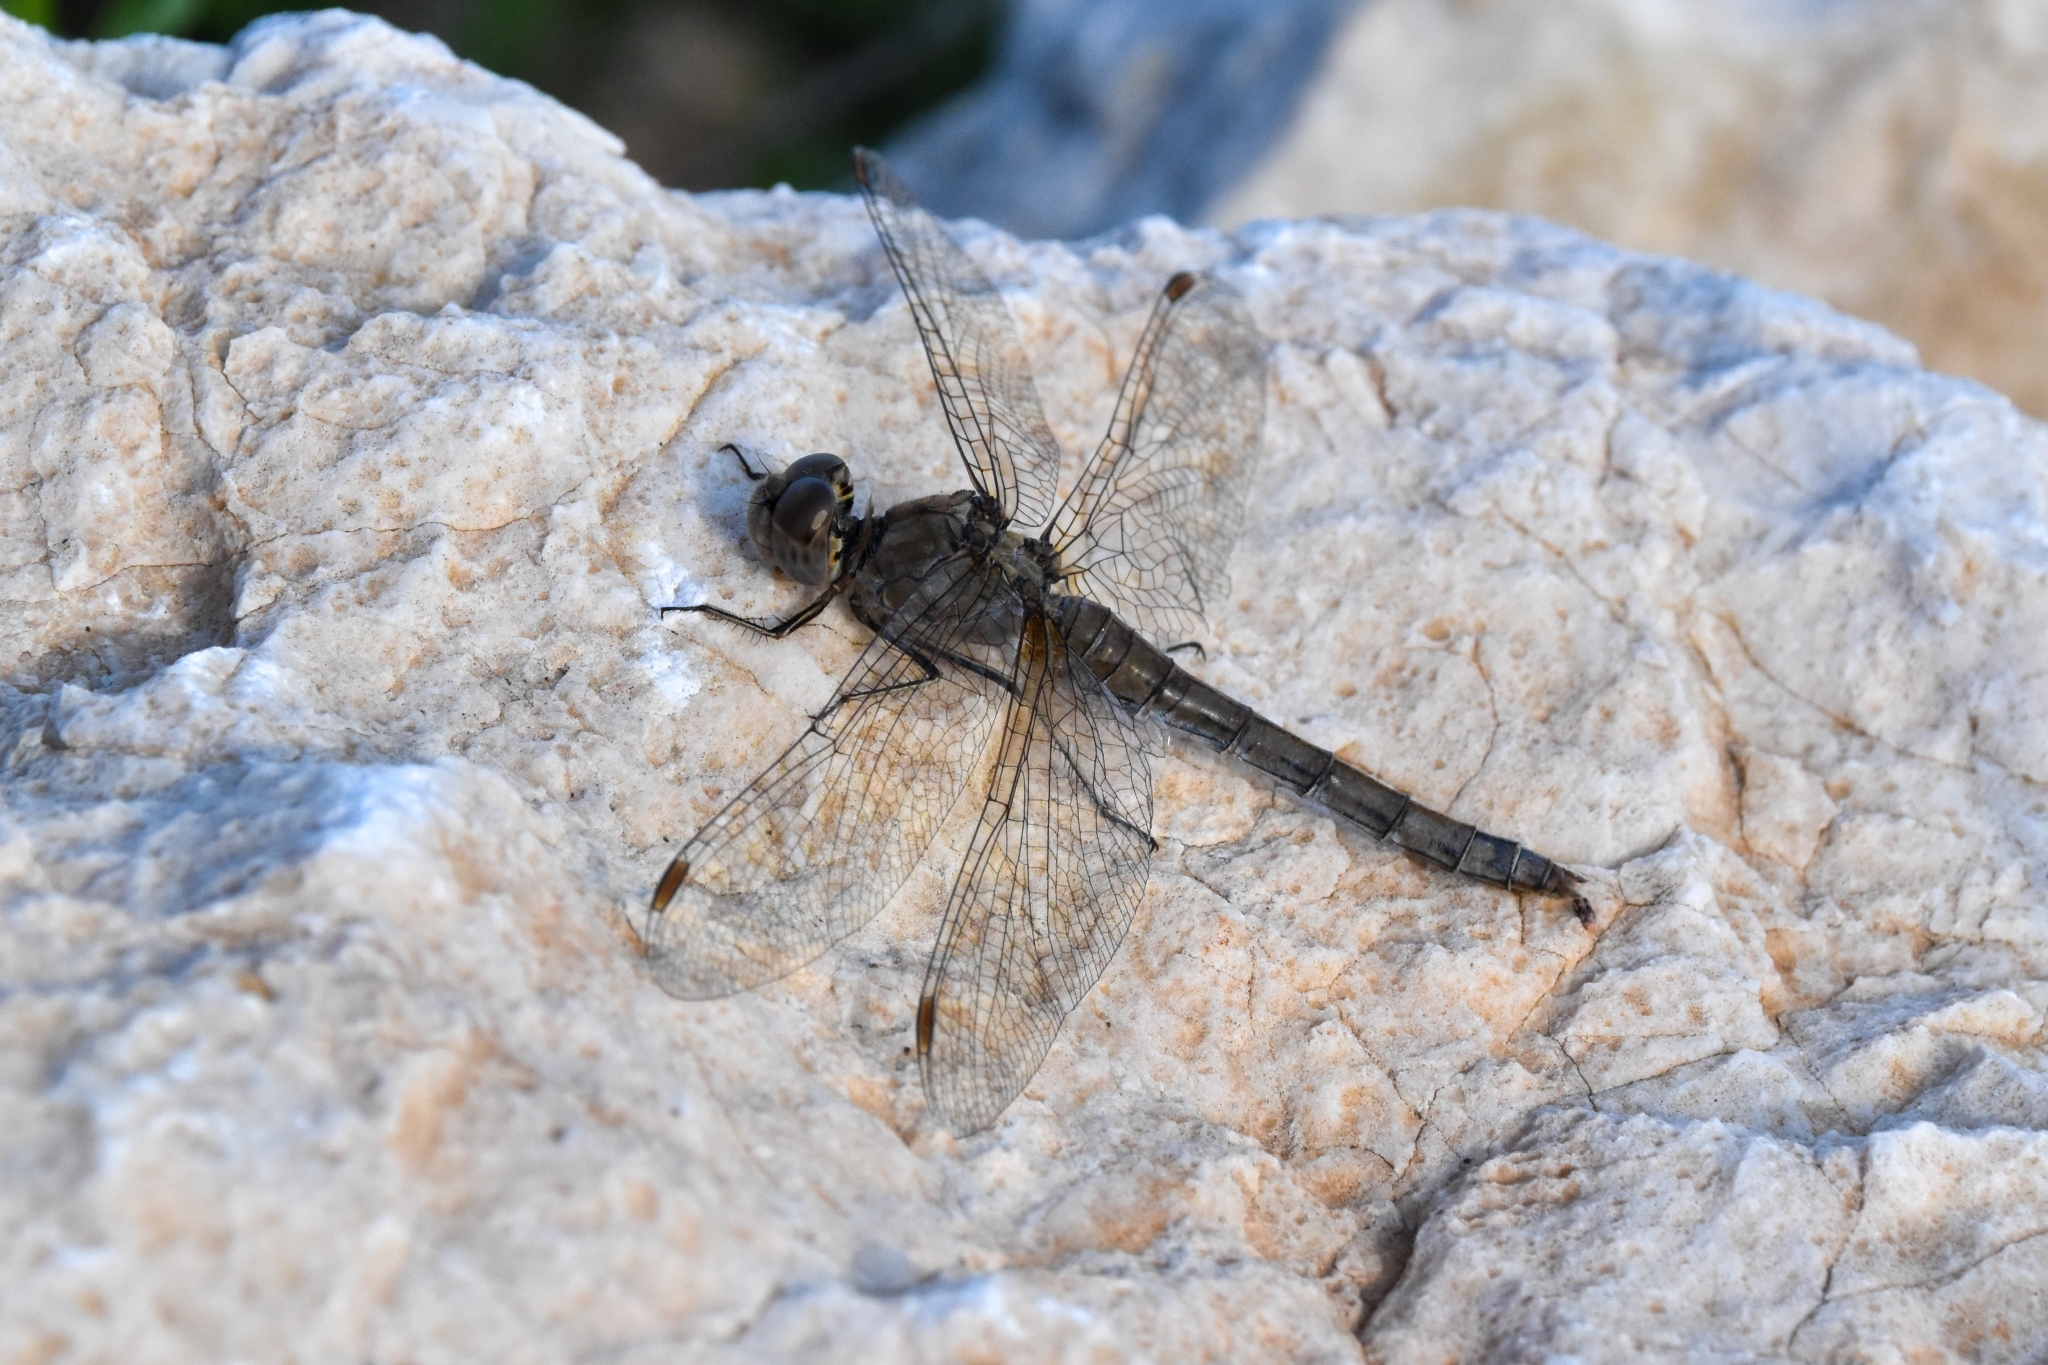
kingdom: Animalia
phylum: Arthropoda
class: Insecta
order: Odonata
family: Libellulidae
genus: Sympetrum
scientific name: Sympetrum striolatum
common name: Common darter
